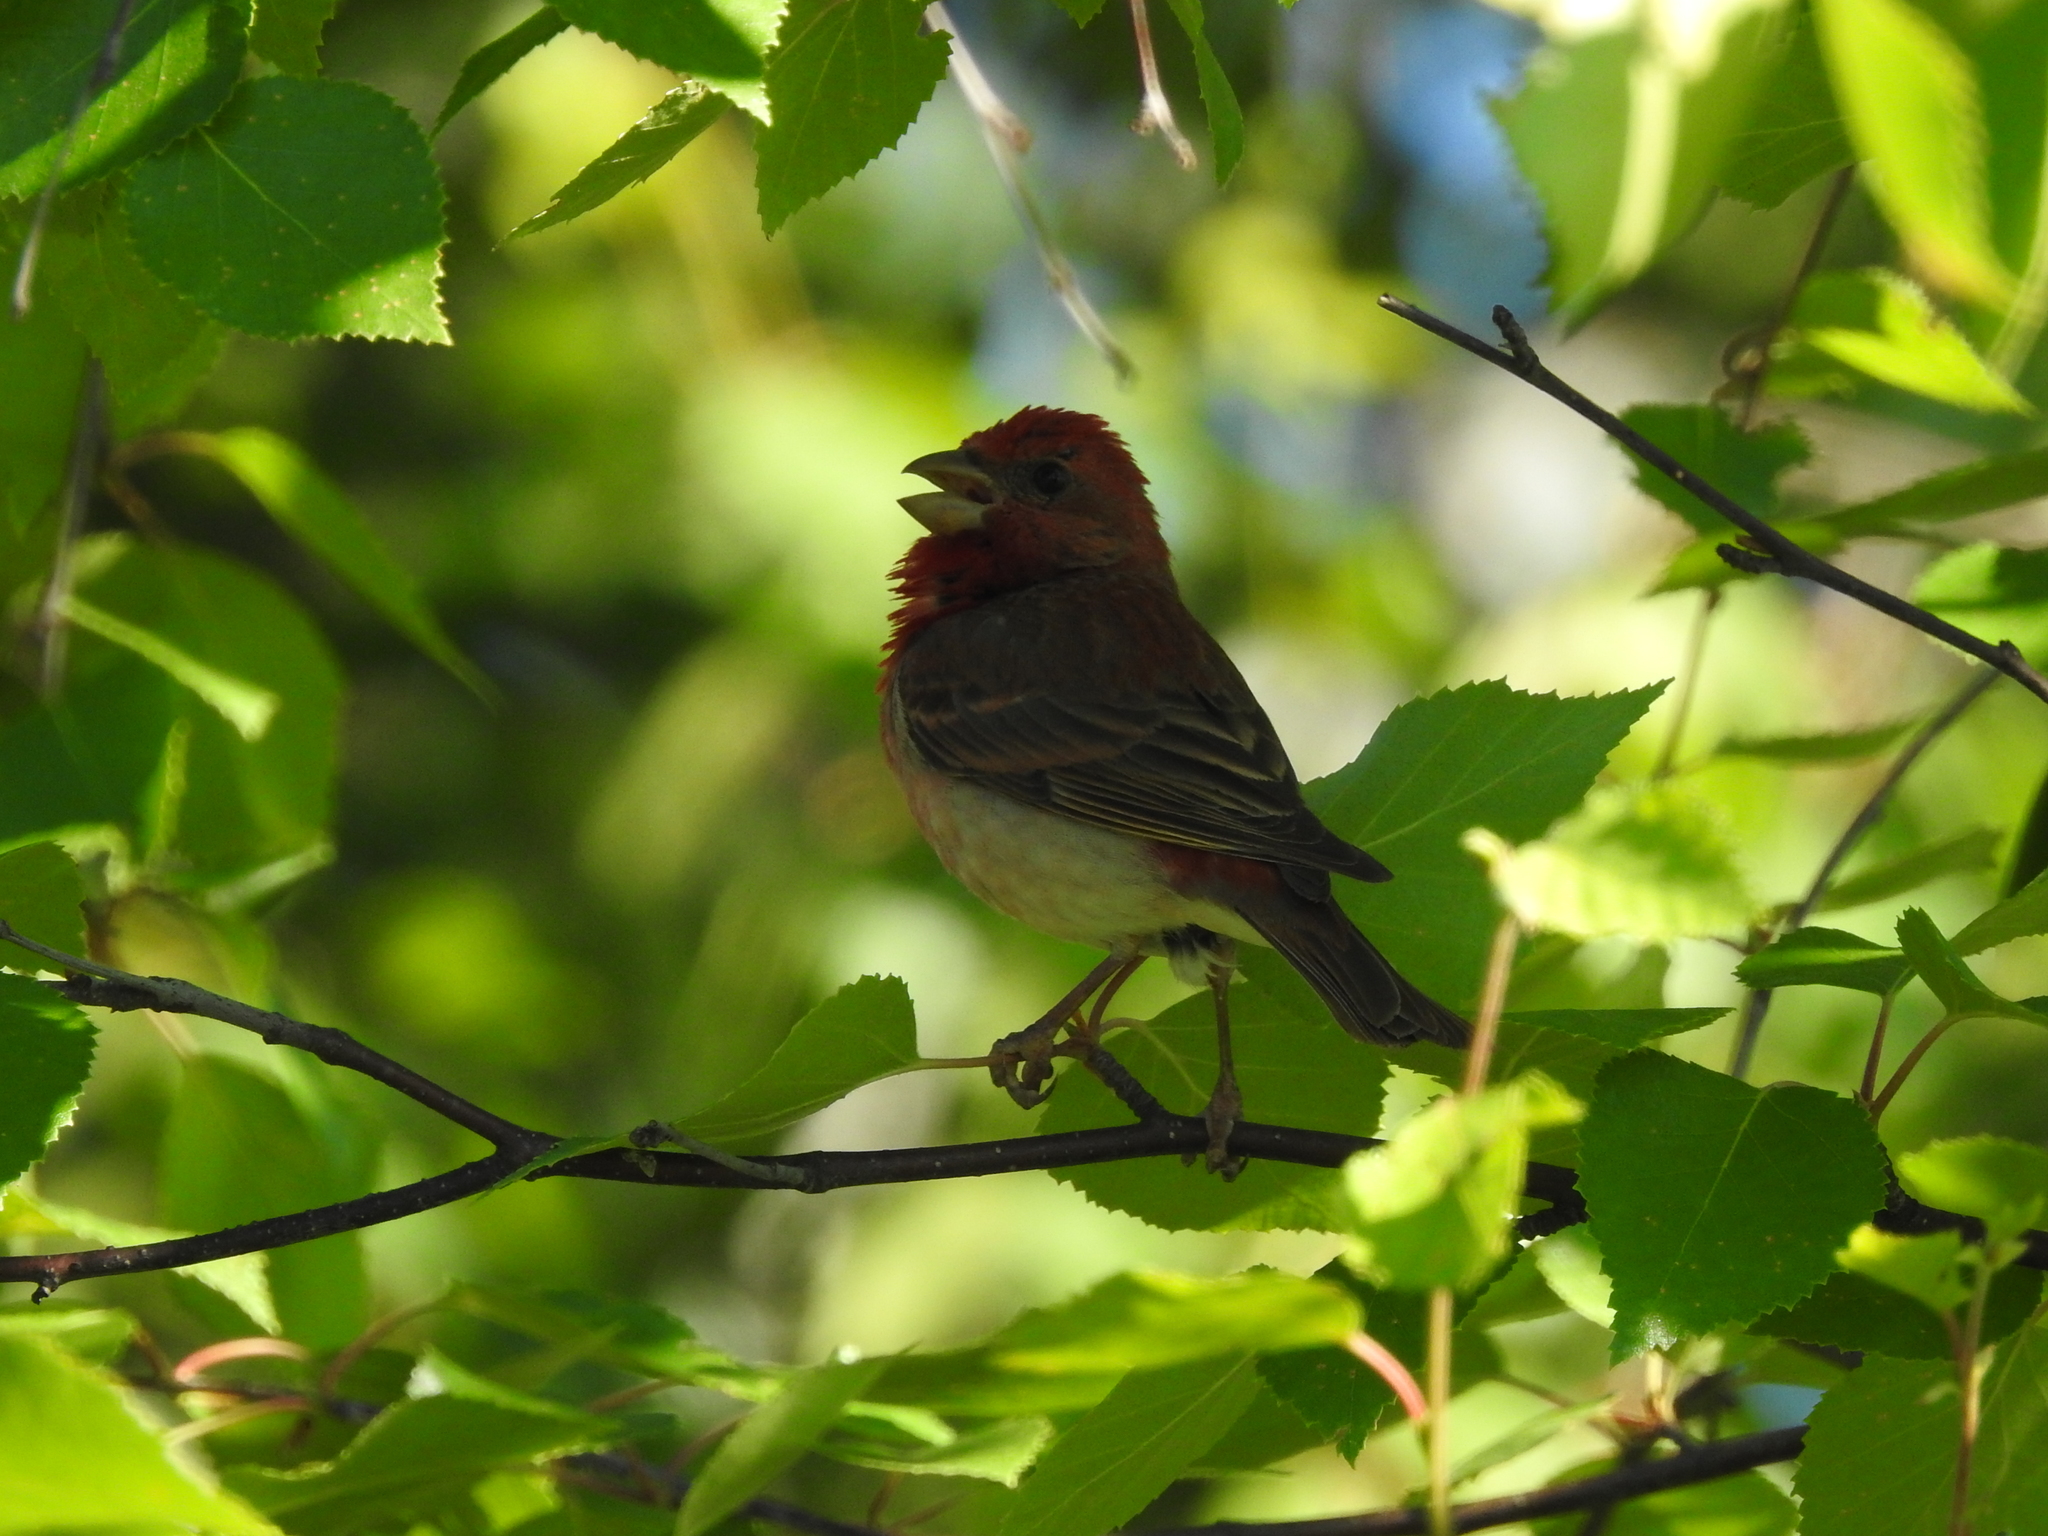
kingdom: Animalia
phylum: Chordata
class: Aves
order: Passeriformes
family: Fringillidae
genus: Carpodacus
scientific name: Carpodacus erythrinus
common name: Common rosefinch
